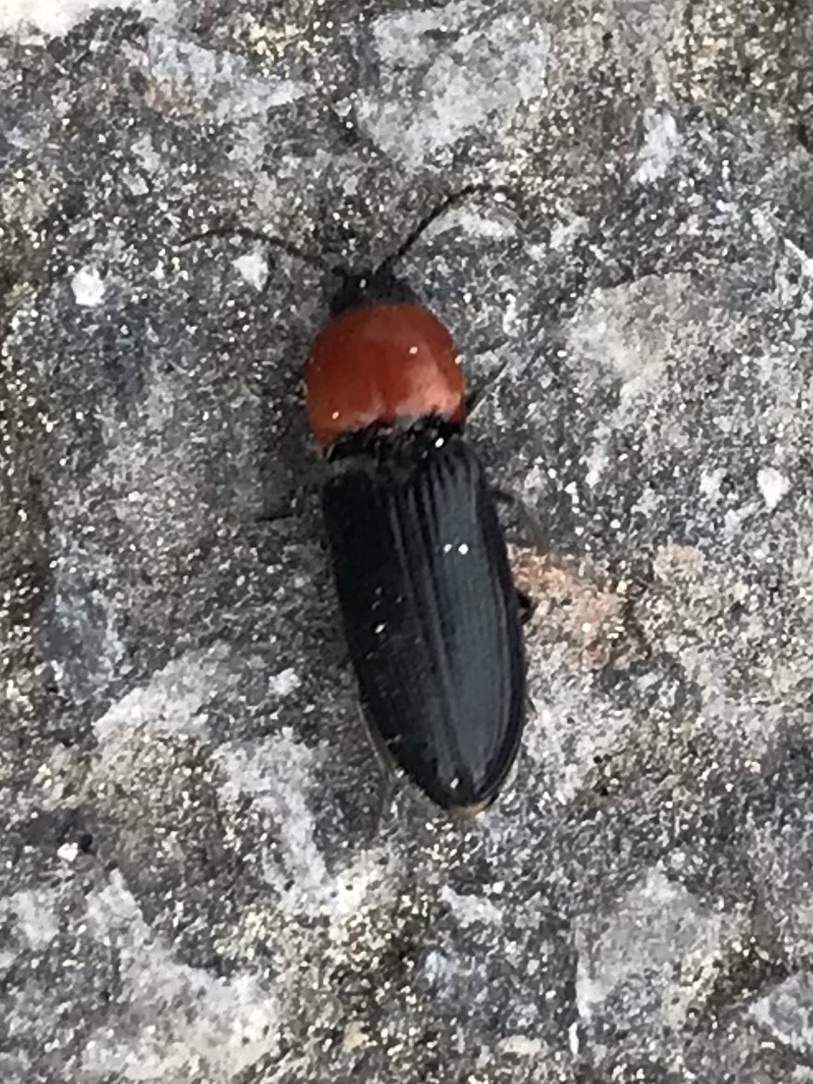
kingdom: Animalia
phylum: Arthropoda
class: Insecta
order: Coleoptera
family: Elateridae
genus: Cardiophorus
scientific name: Cardiophorus gramineus
